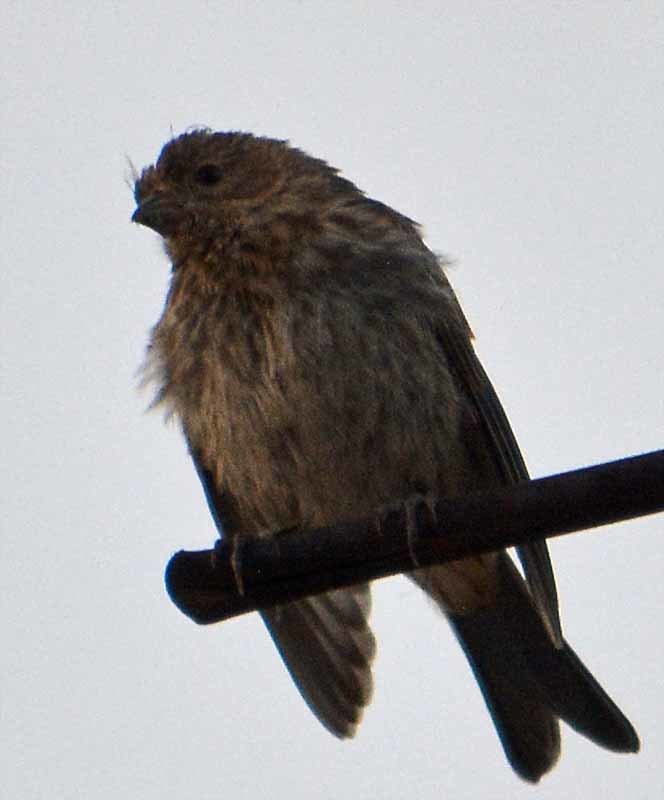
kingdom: Animalia
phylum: Chordata
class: Aves
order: Passeriformes
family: Fringillidae
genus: Haemorhous
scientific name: Haemorhous mexicanus
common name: House finch
